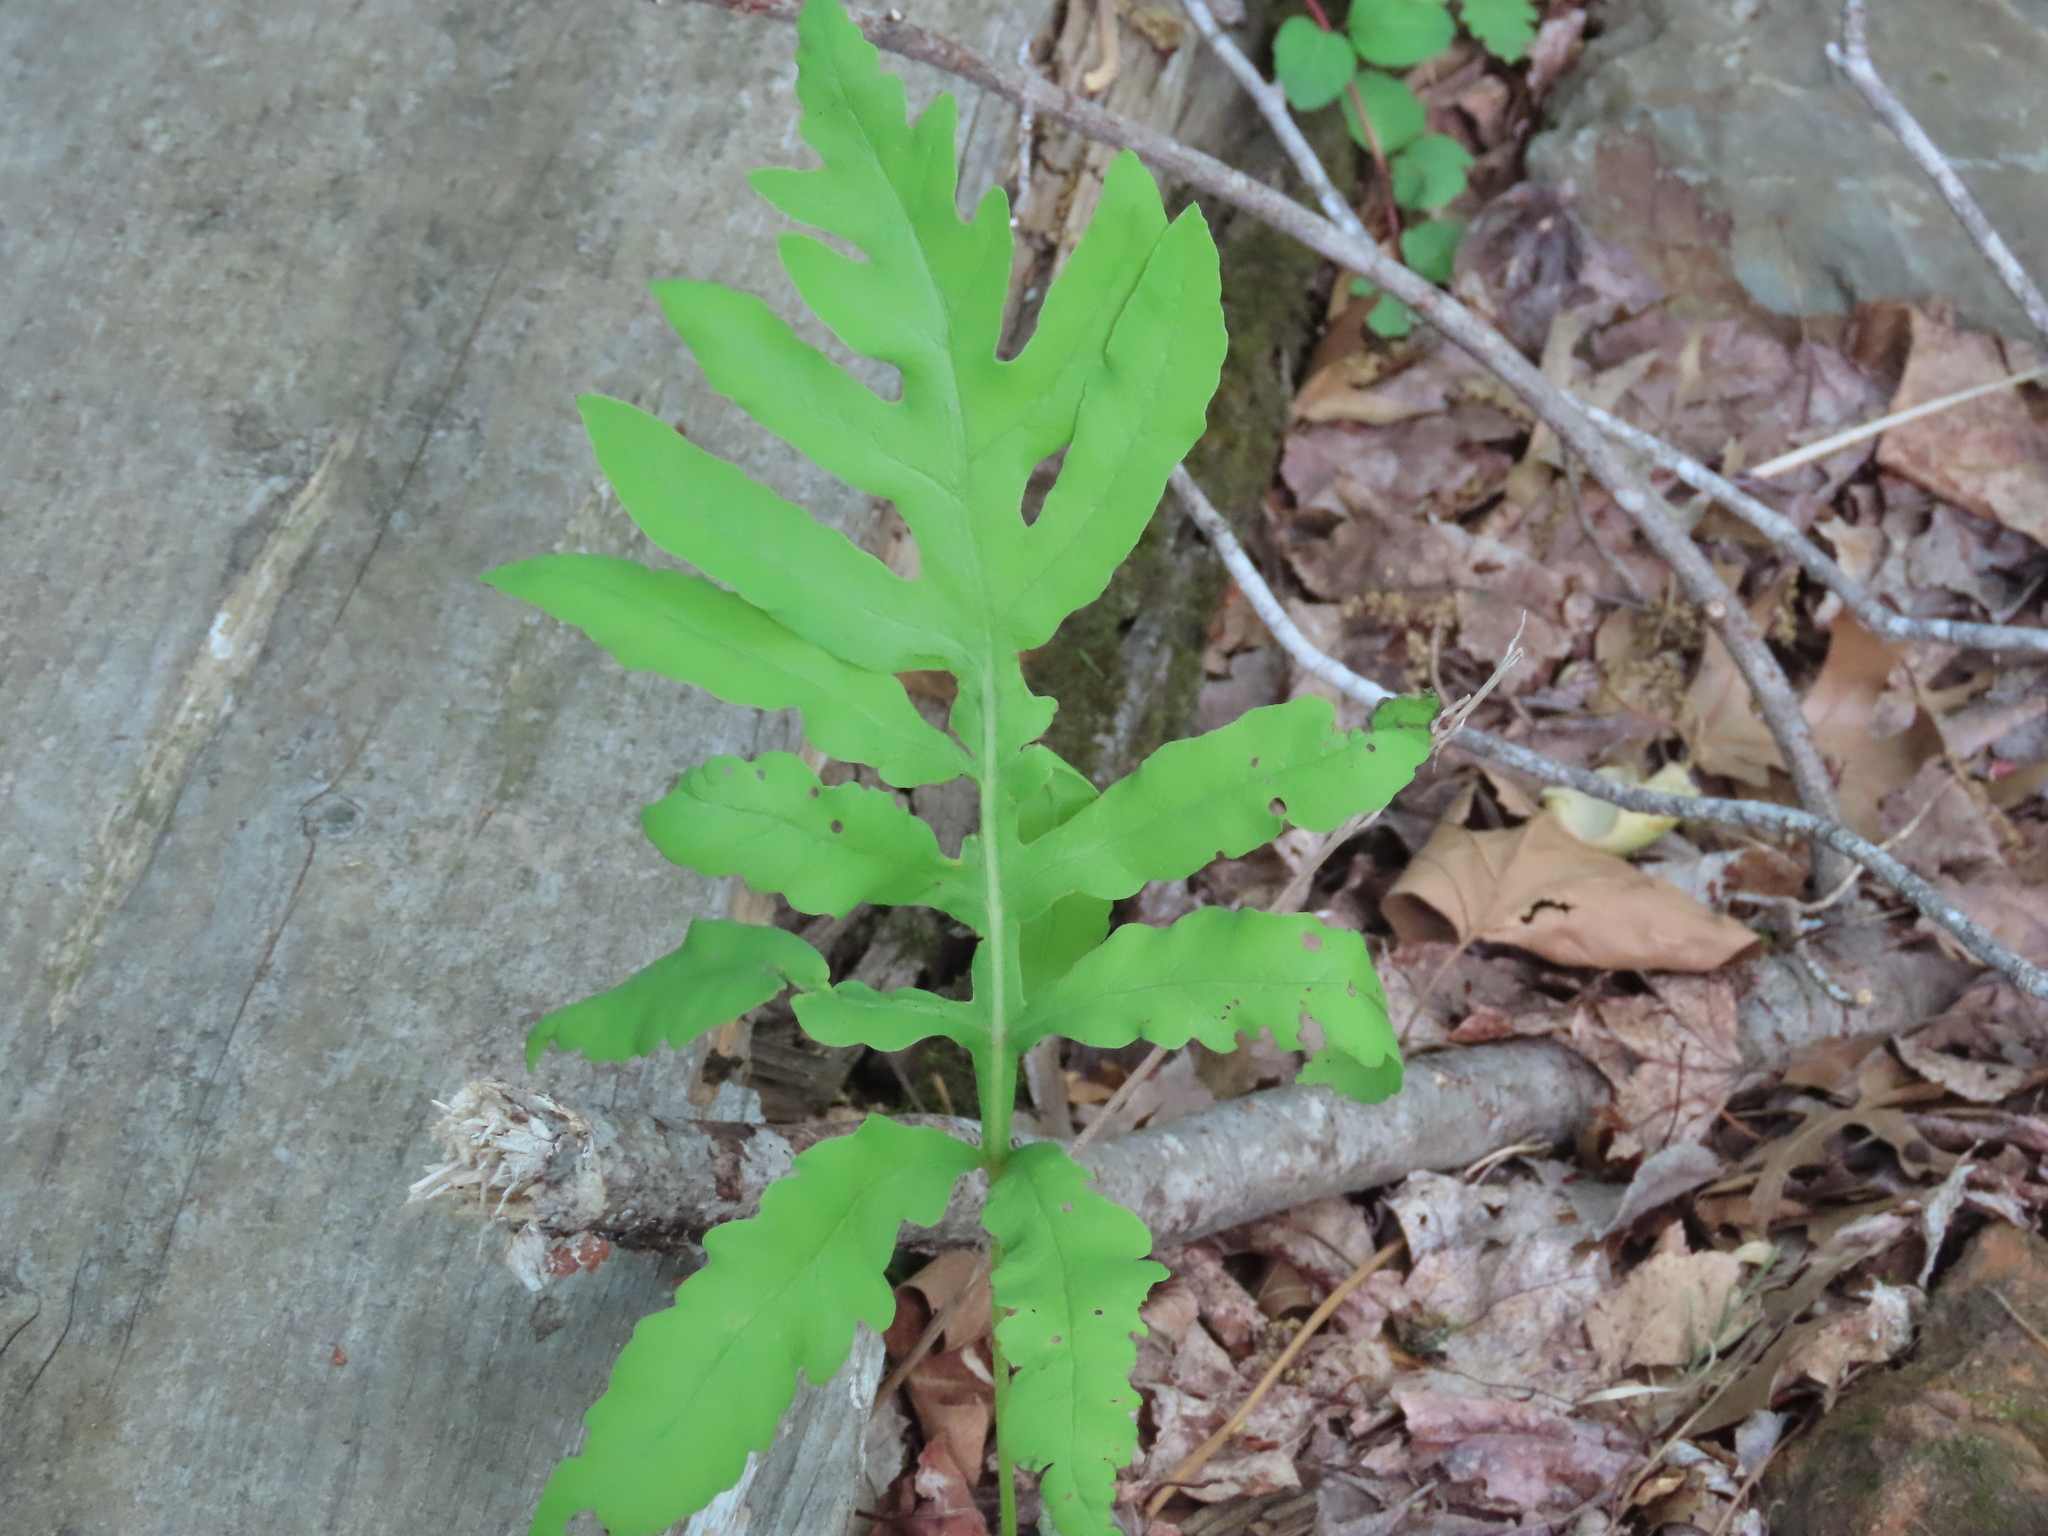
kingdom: Plantae
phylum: Tracheophyta
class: Polypodiopsida
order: Polypodiales
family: Onocleaceae
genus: Onoclea
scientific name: Onoclea sensibilis
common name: Sensitive fern
